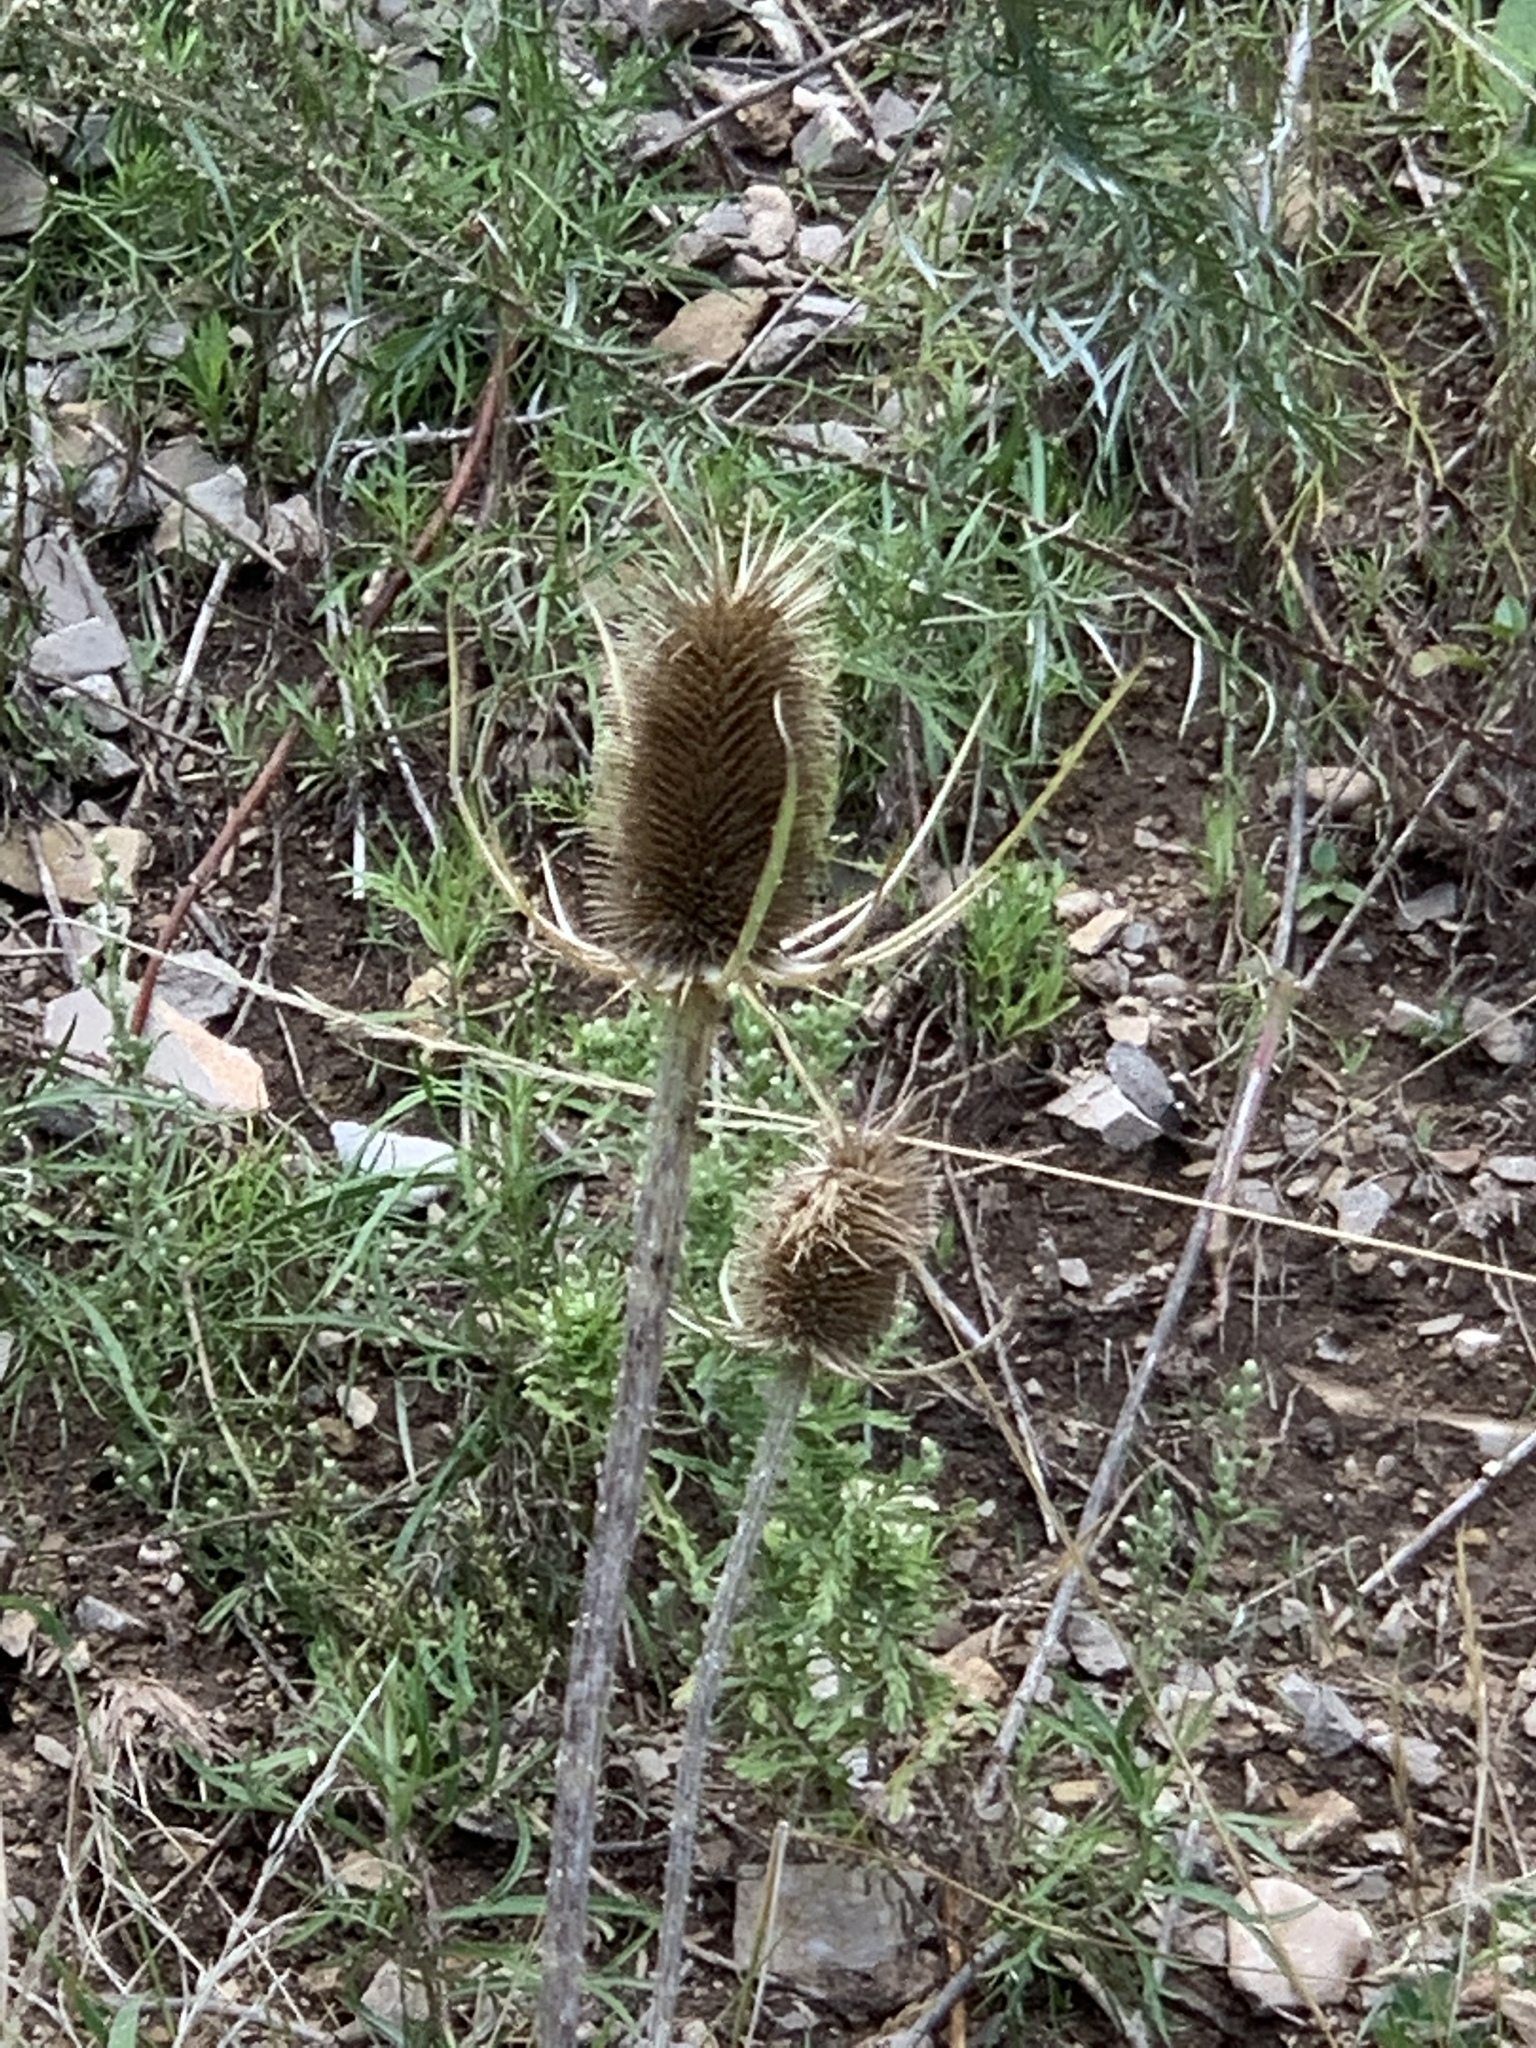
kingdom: Plantae
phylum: Tracheophyta
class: Magnoliopsida
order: Dipsacales
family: Caprifoliaceae
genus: Dipsacus
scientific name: Dipsacus fullonum
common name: Teasel
